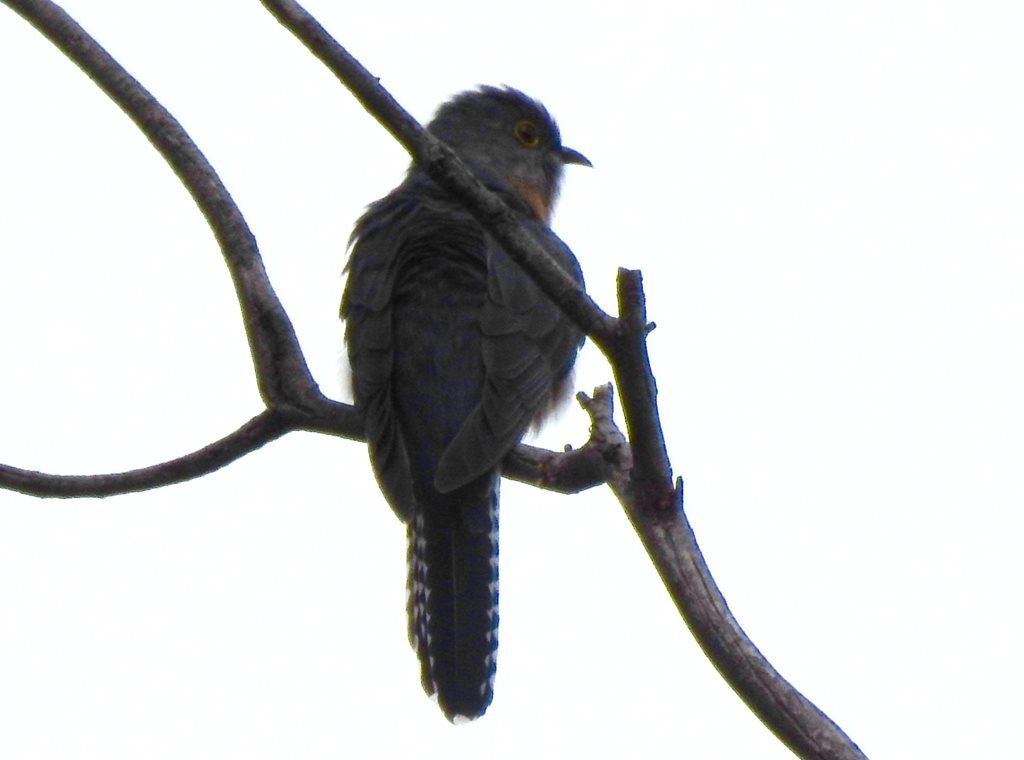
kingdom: Animalia
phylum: Chordata
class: Aves
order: Cuculiformes
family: Cuculidae
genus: Cacomantis
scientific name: Cacomantis flabelliformis
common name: Fan-tailed cuckoo
